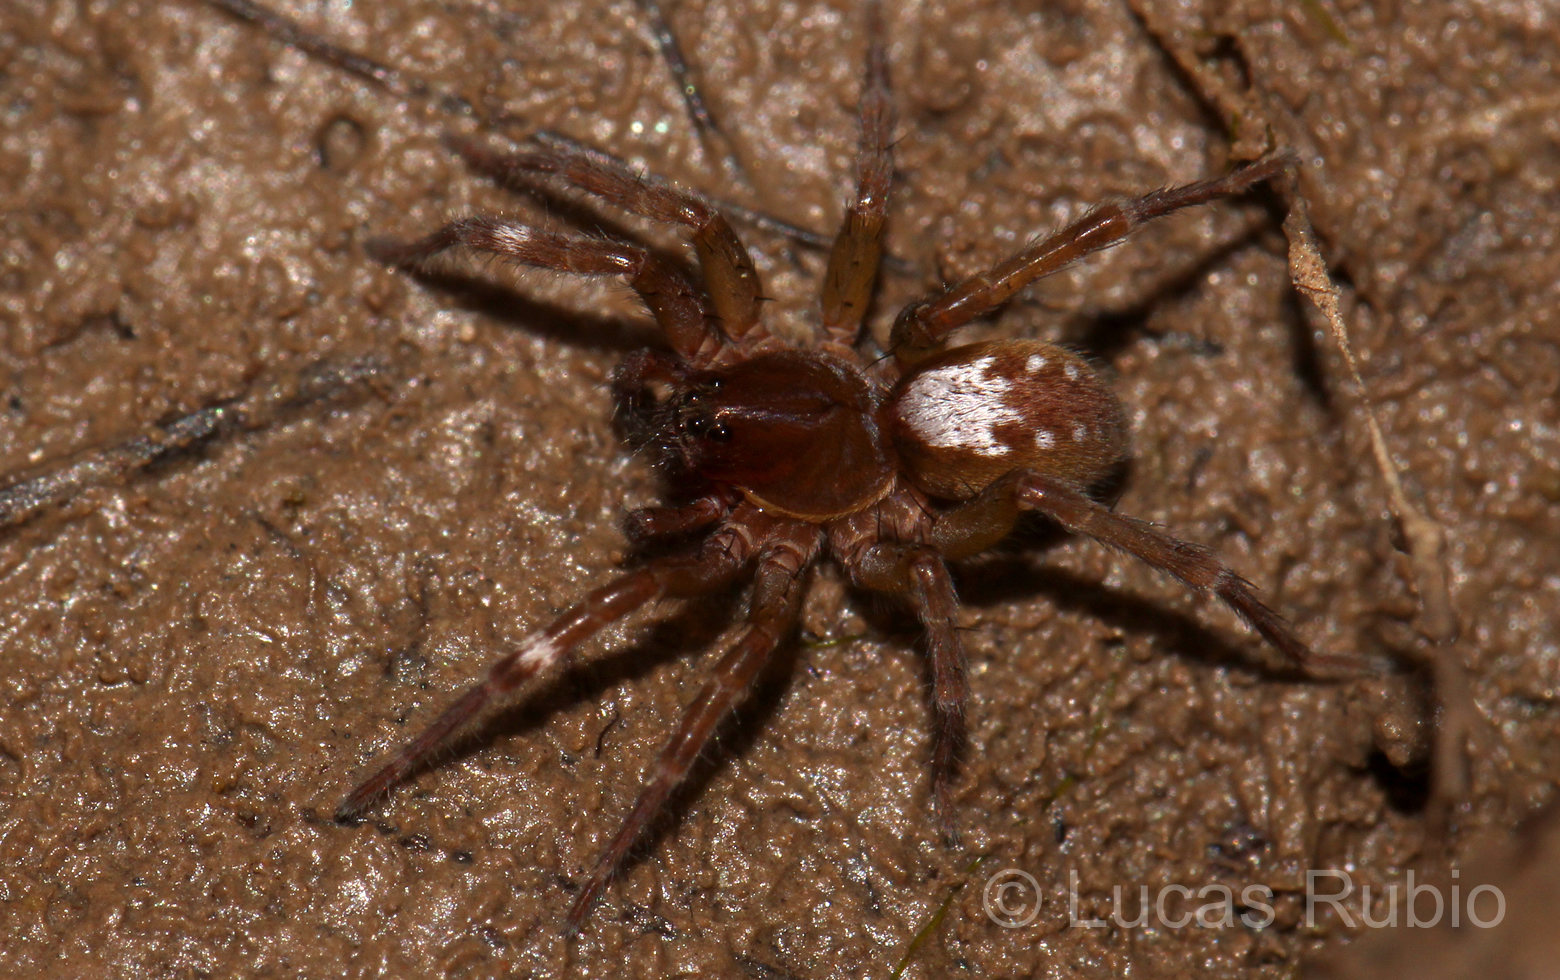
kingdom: Animalia
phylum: Arthropoda
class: Arachnida
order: Araneae
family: Lycosidae
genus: Agalenocosa
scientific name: Agalenocosa grismadoi
